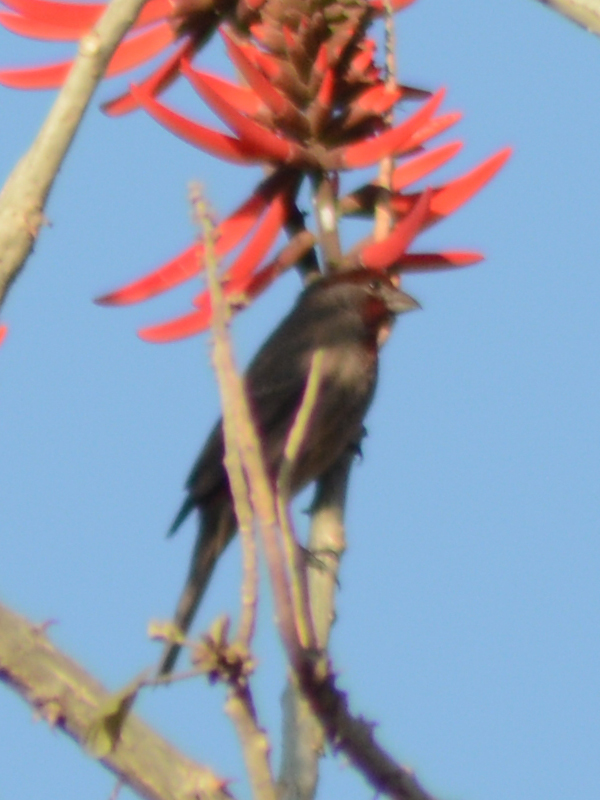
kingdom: Animalia
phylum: Chordata
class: Aves
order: Passeriformes
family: Fringillidae
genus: Haemorhous
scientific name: Haemorhous mexicanus
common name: House finch
